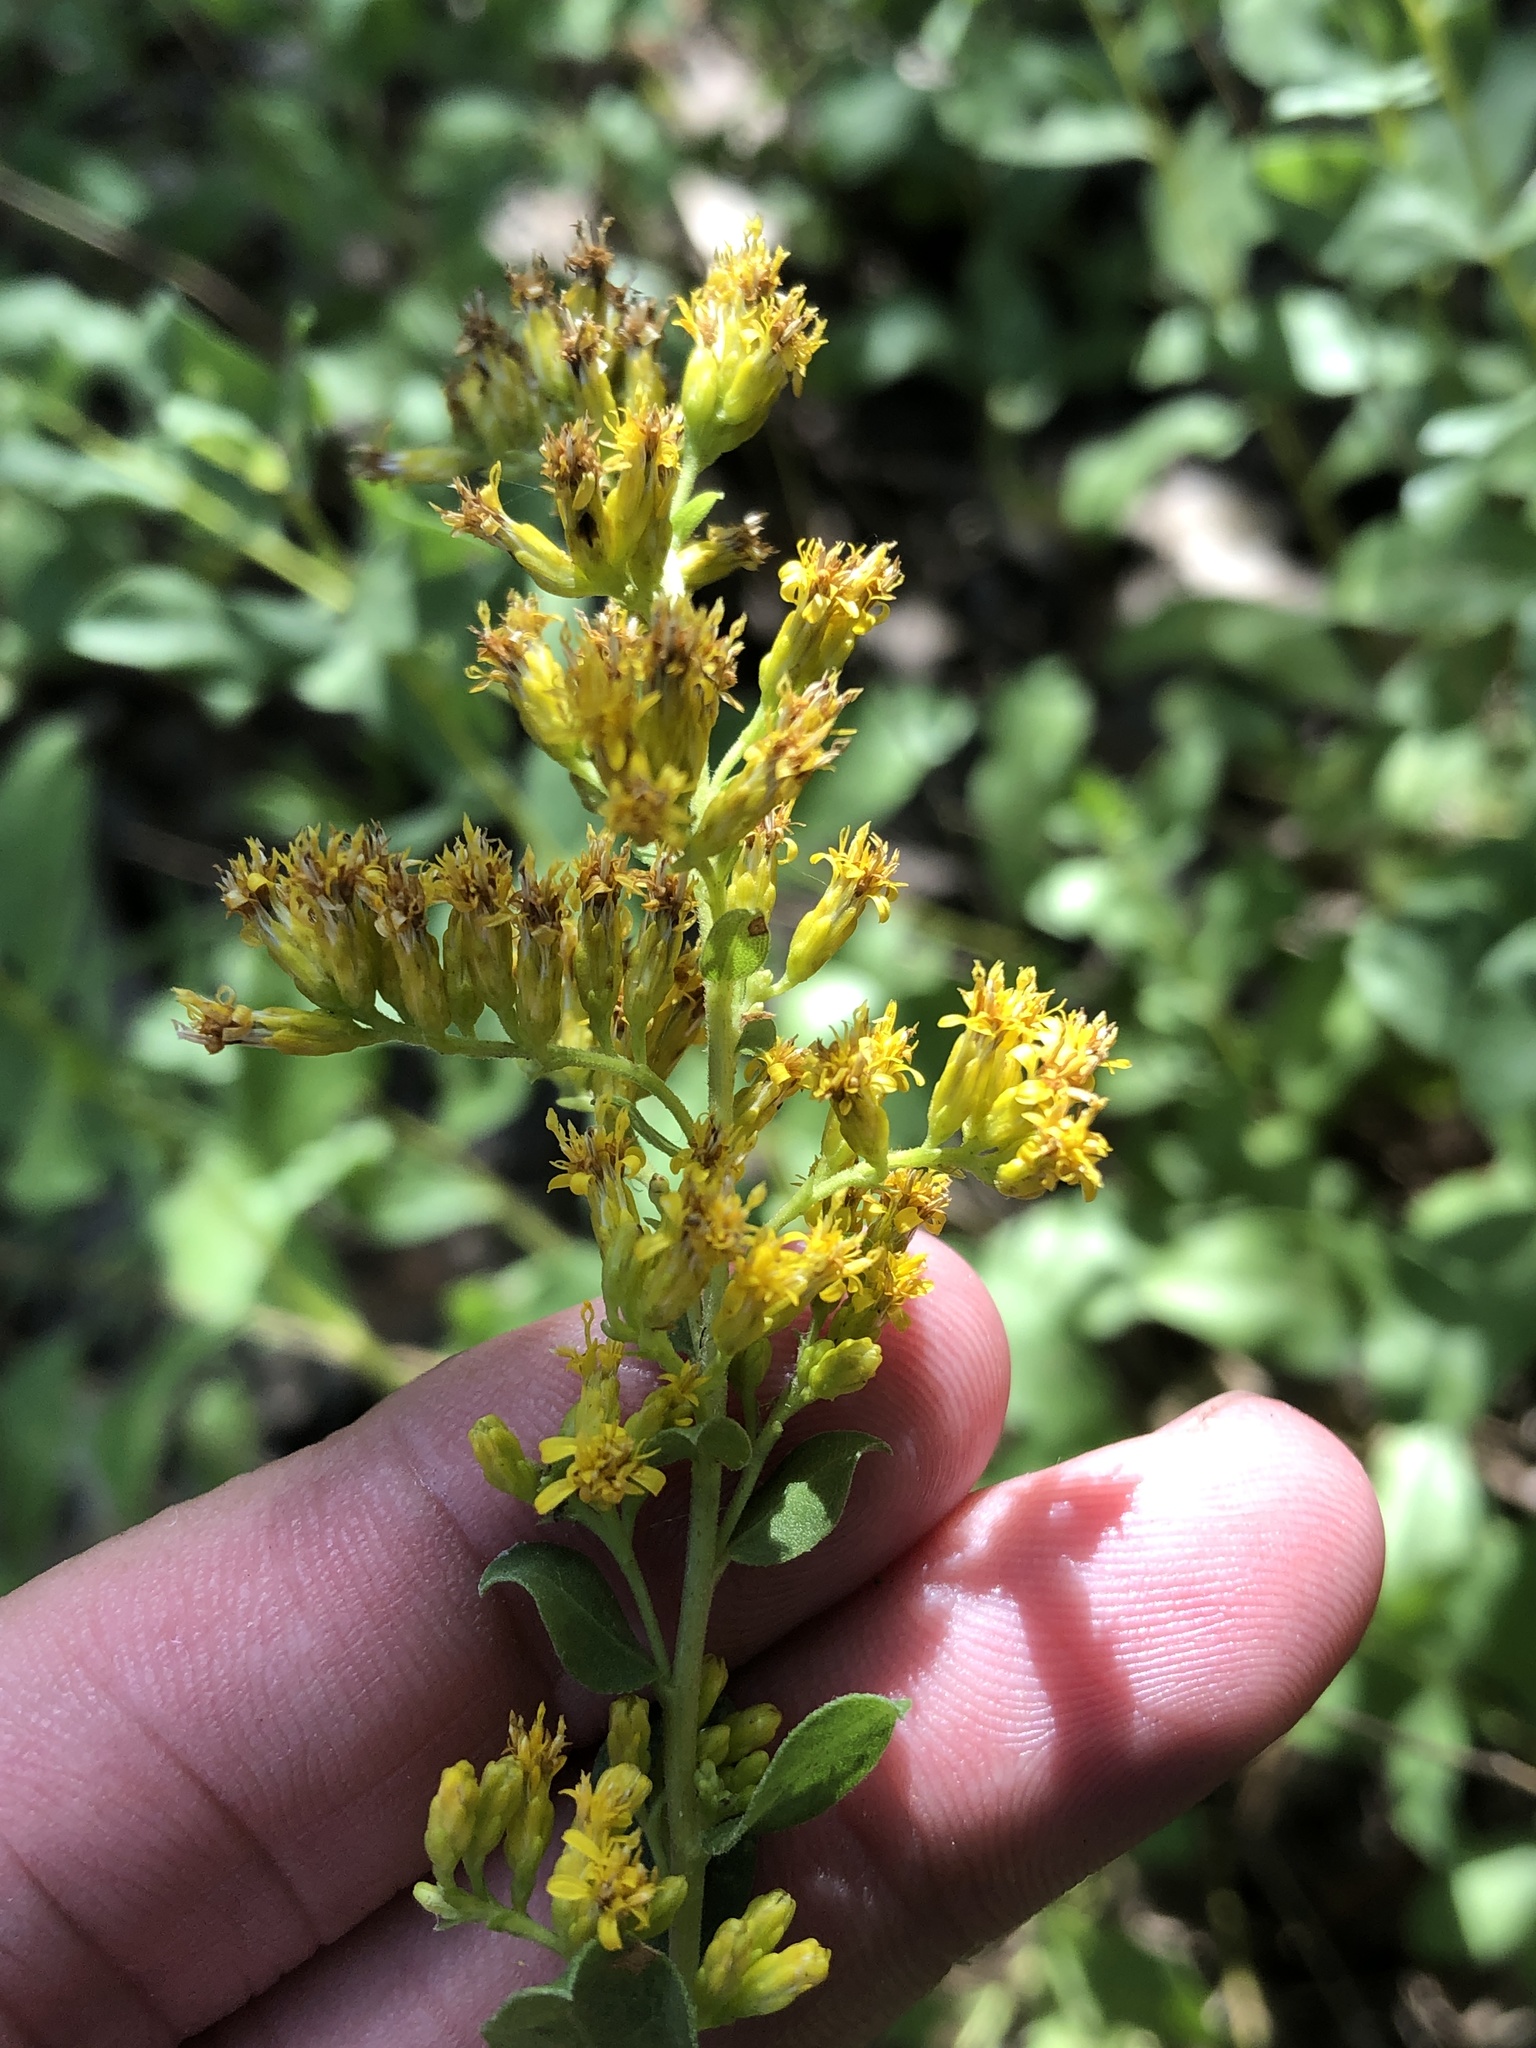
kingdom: Plantae
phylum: Tracheophyta
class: Magnoliopsida
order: Asterales
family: Asteraceae
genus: Solidago
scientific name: Solidago radula
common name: Western rough goldenrod
